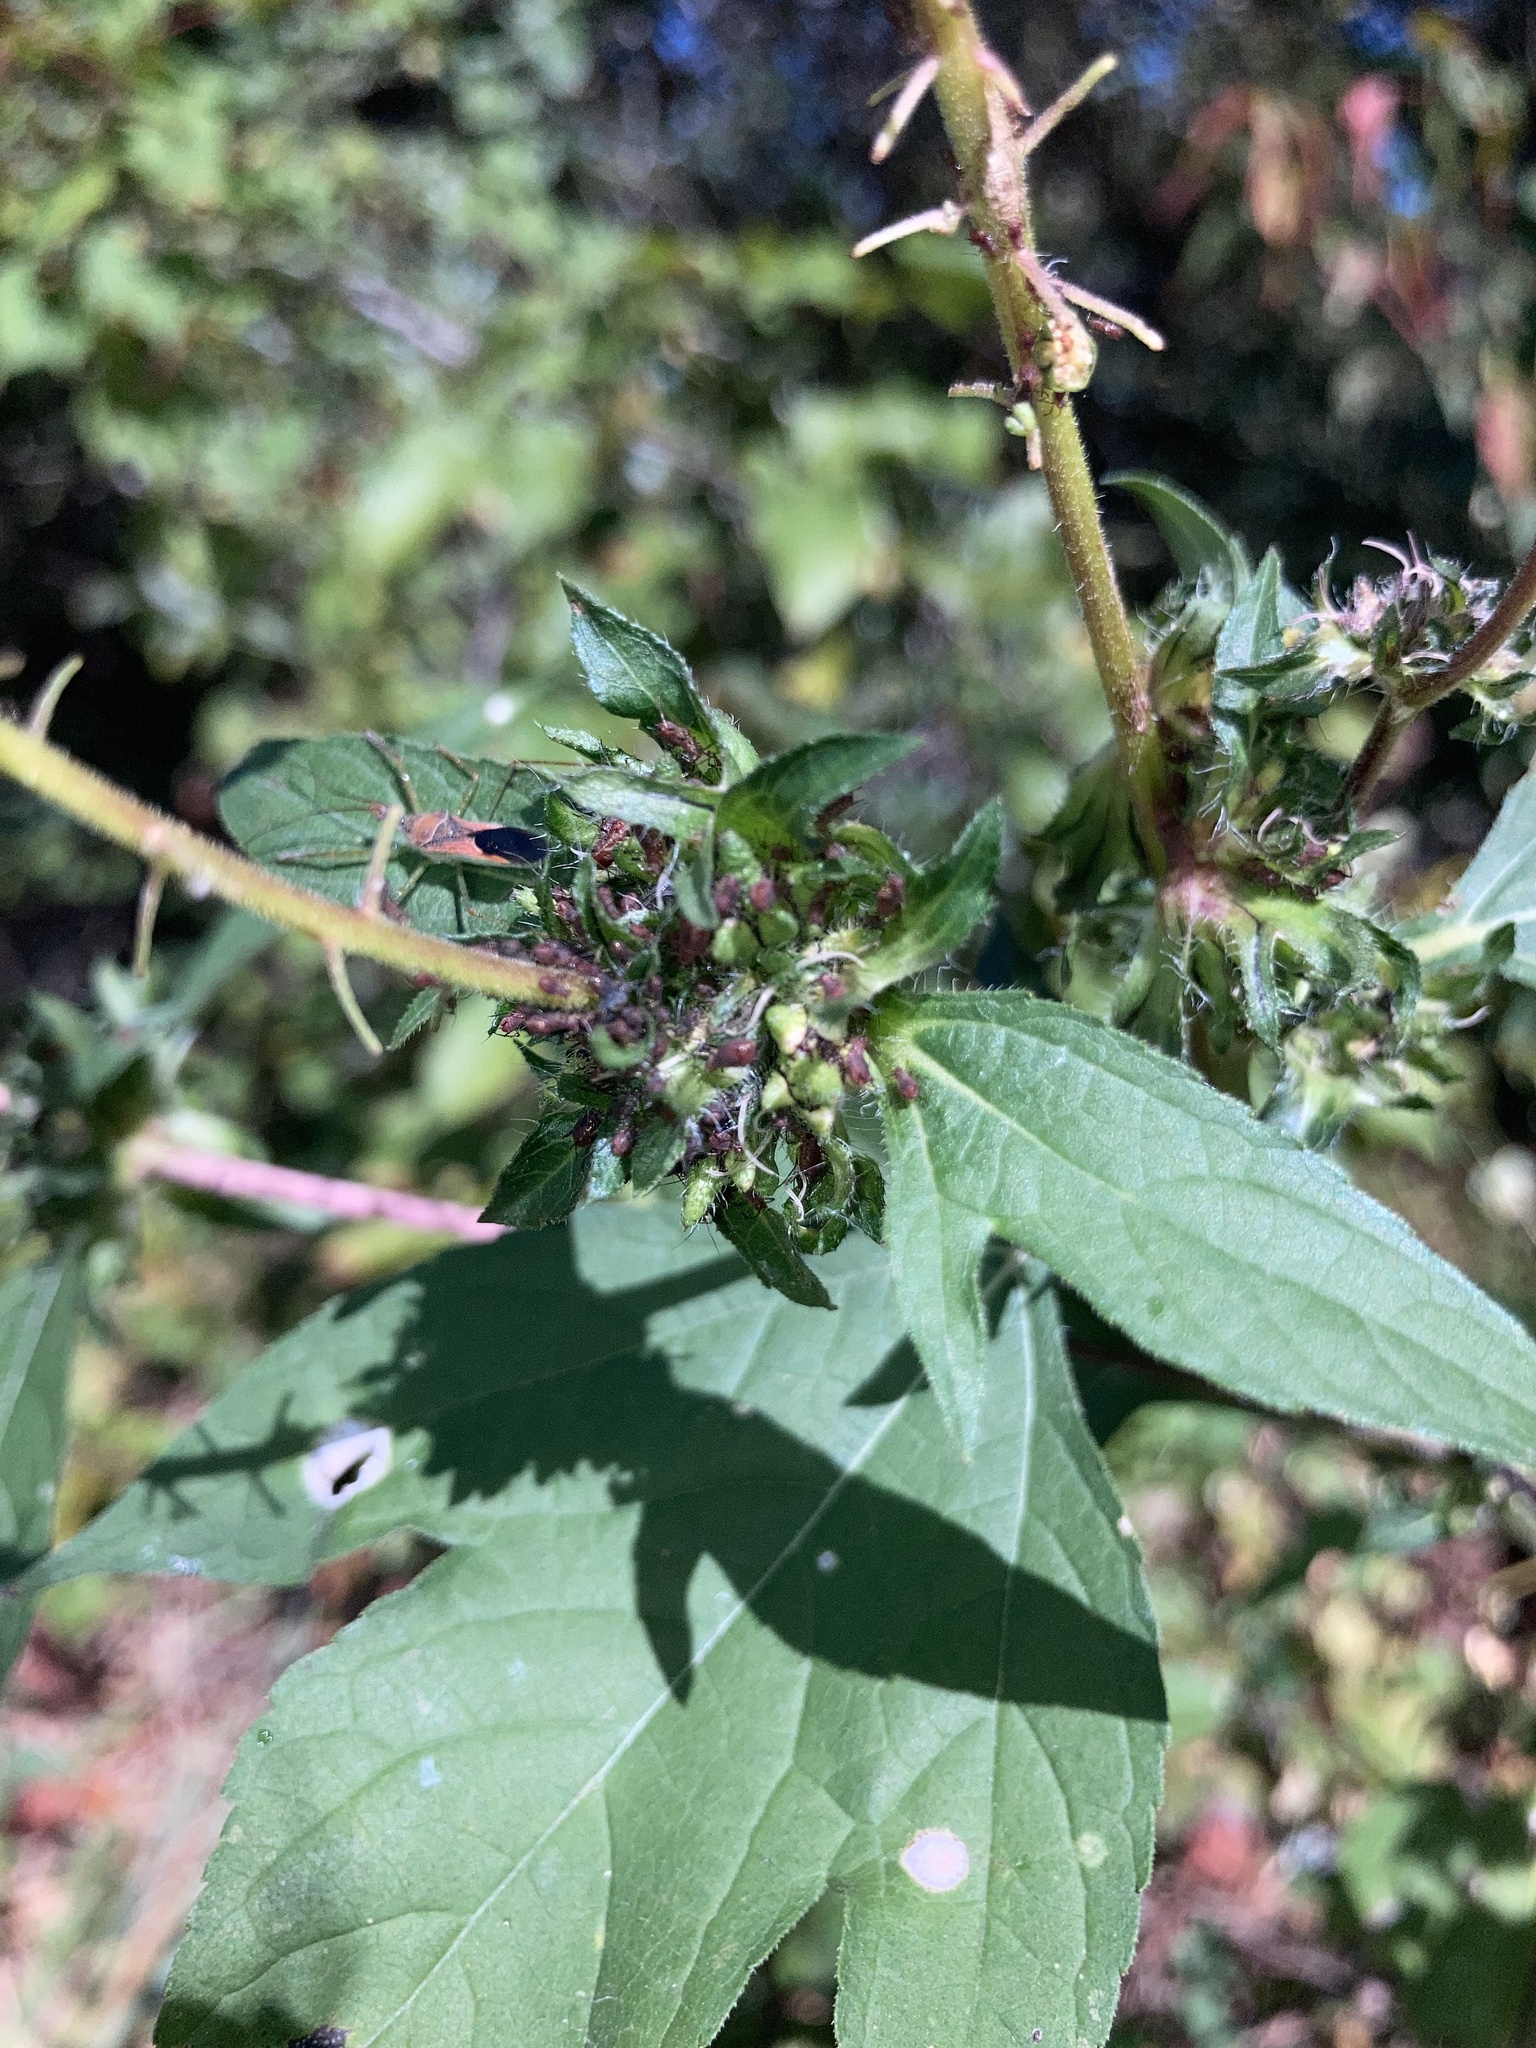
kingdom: Plantae
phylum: Tracheophyta
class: Magnoliopsida
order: Asterales
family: Asteraceae
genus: Ambrosia
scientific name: Ambrosia trifida
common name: Giant ragweed
